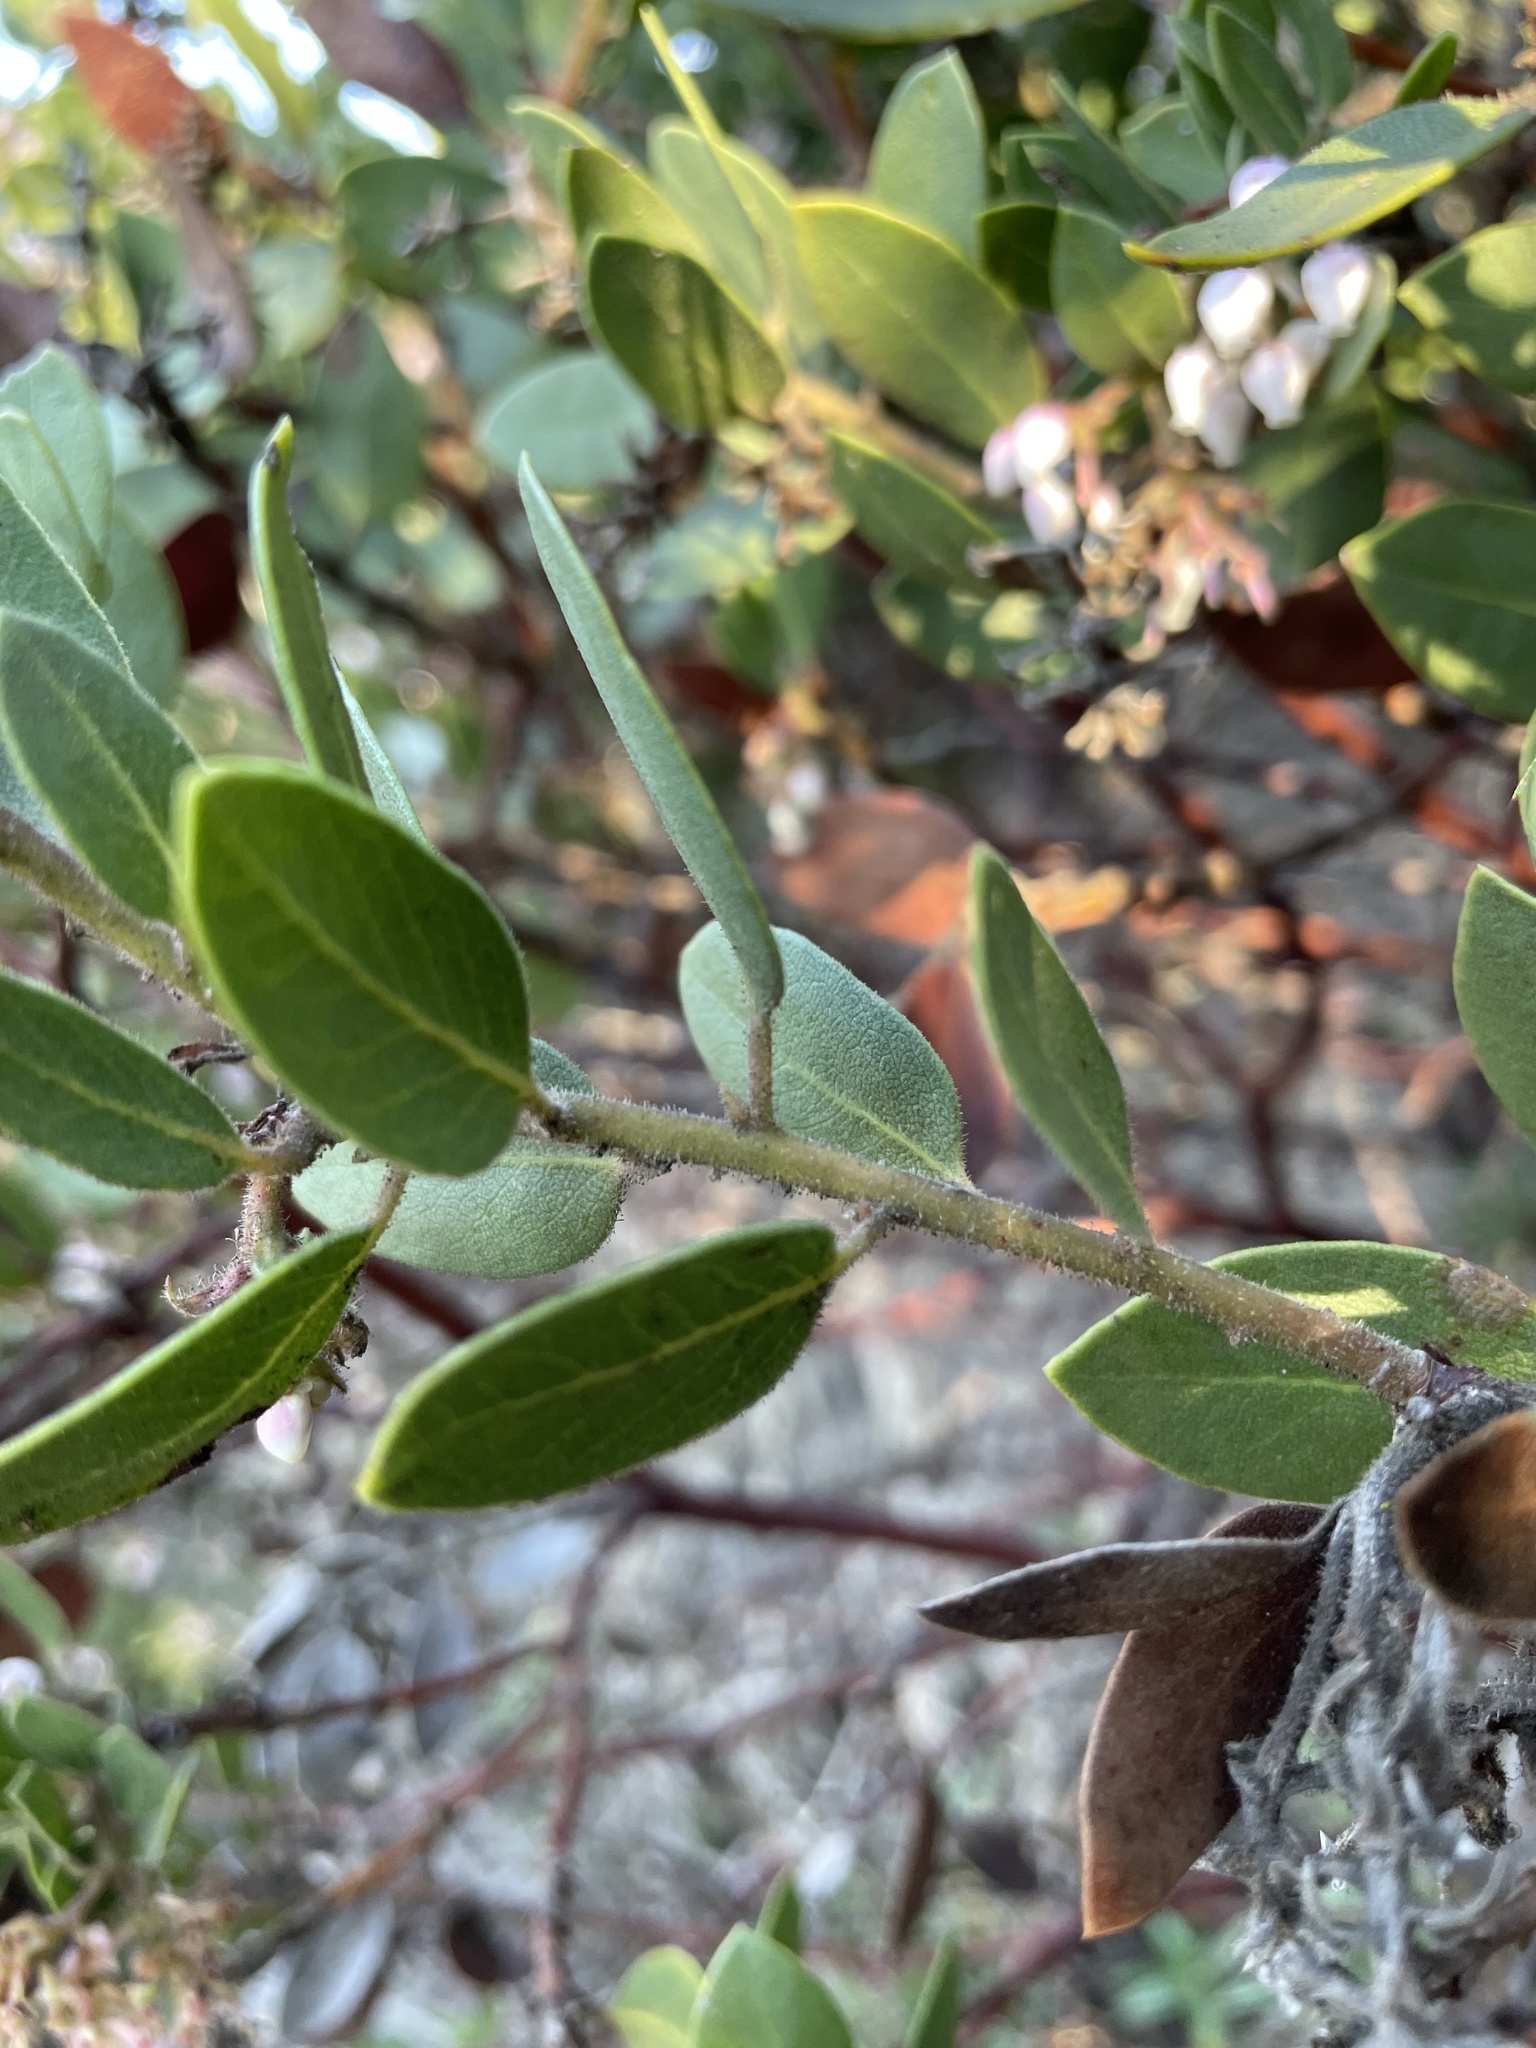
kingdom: Plantae
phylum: Tracheophyta
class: Magnoliopsida
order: Ericales
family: Ericaceae
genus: Arctostaphylos
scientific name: Arctostaphylos montereyensis
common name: Monterey manzanita
